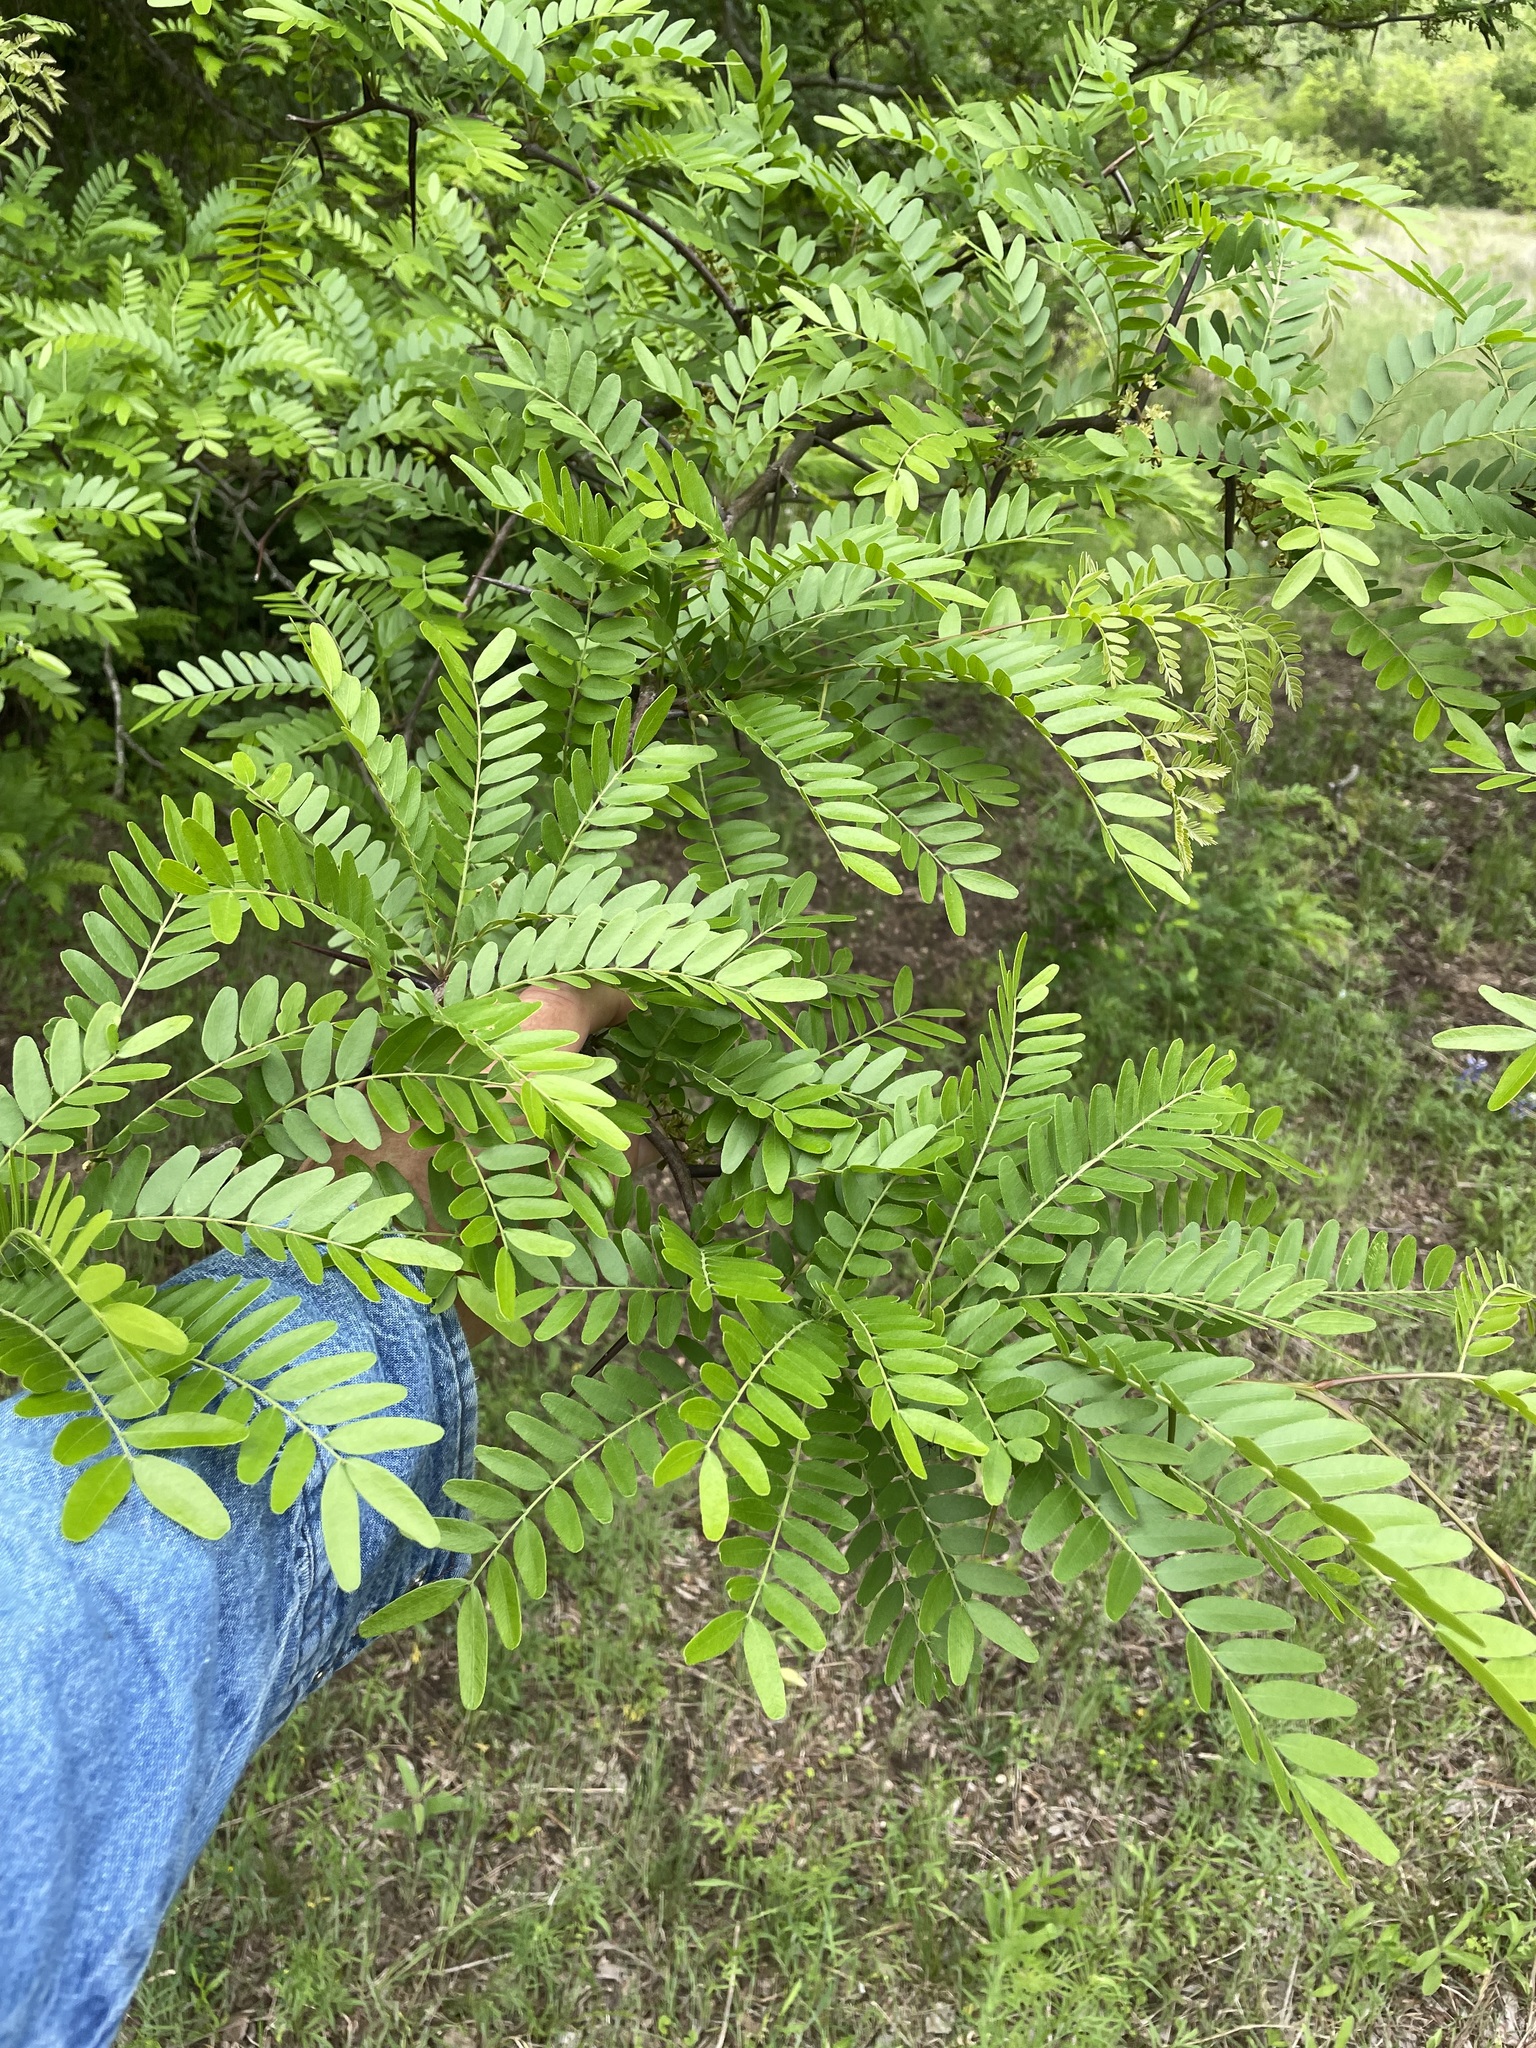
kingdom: Plantae
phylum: Tracheophyta
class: Magnoliopsida
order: Fabales
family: Fabaceae
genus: Gleditsia
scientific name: Gleditsia triacanthos
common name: Common honeylocust
